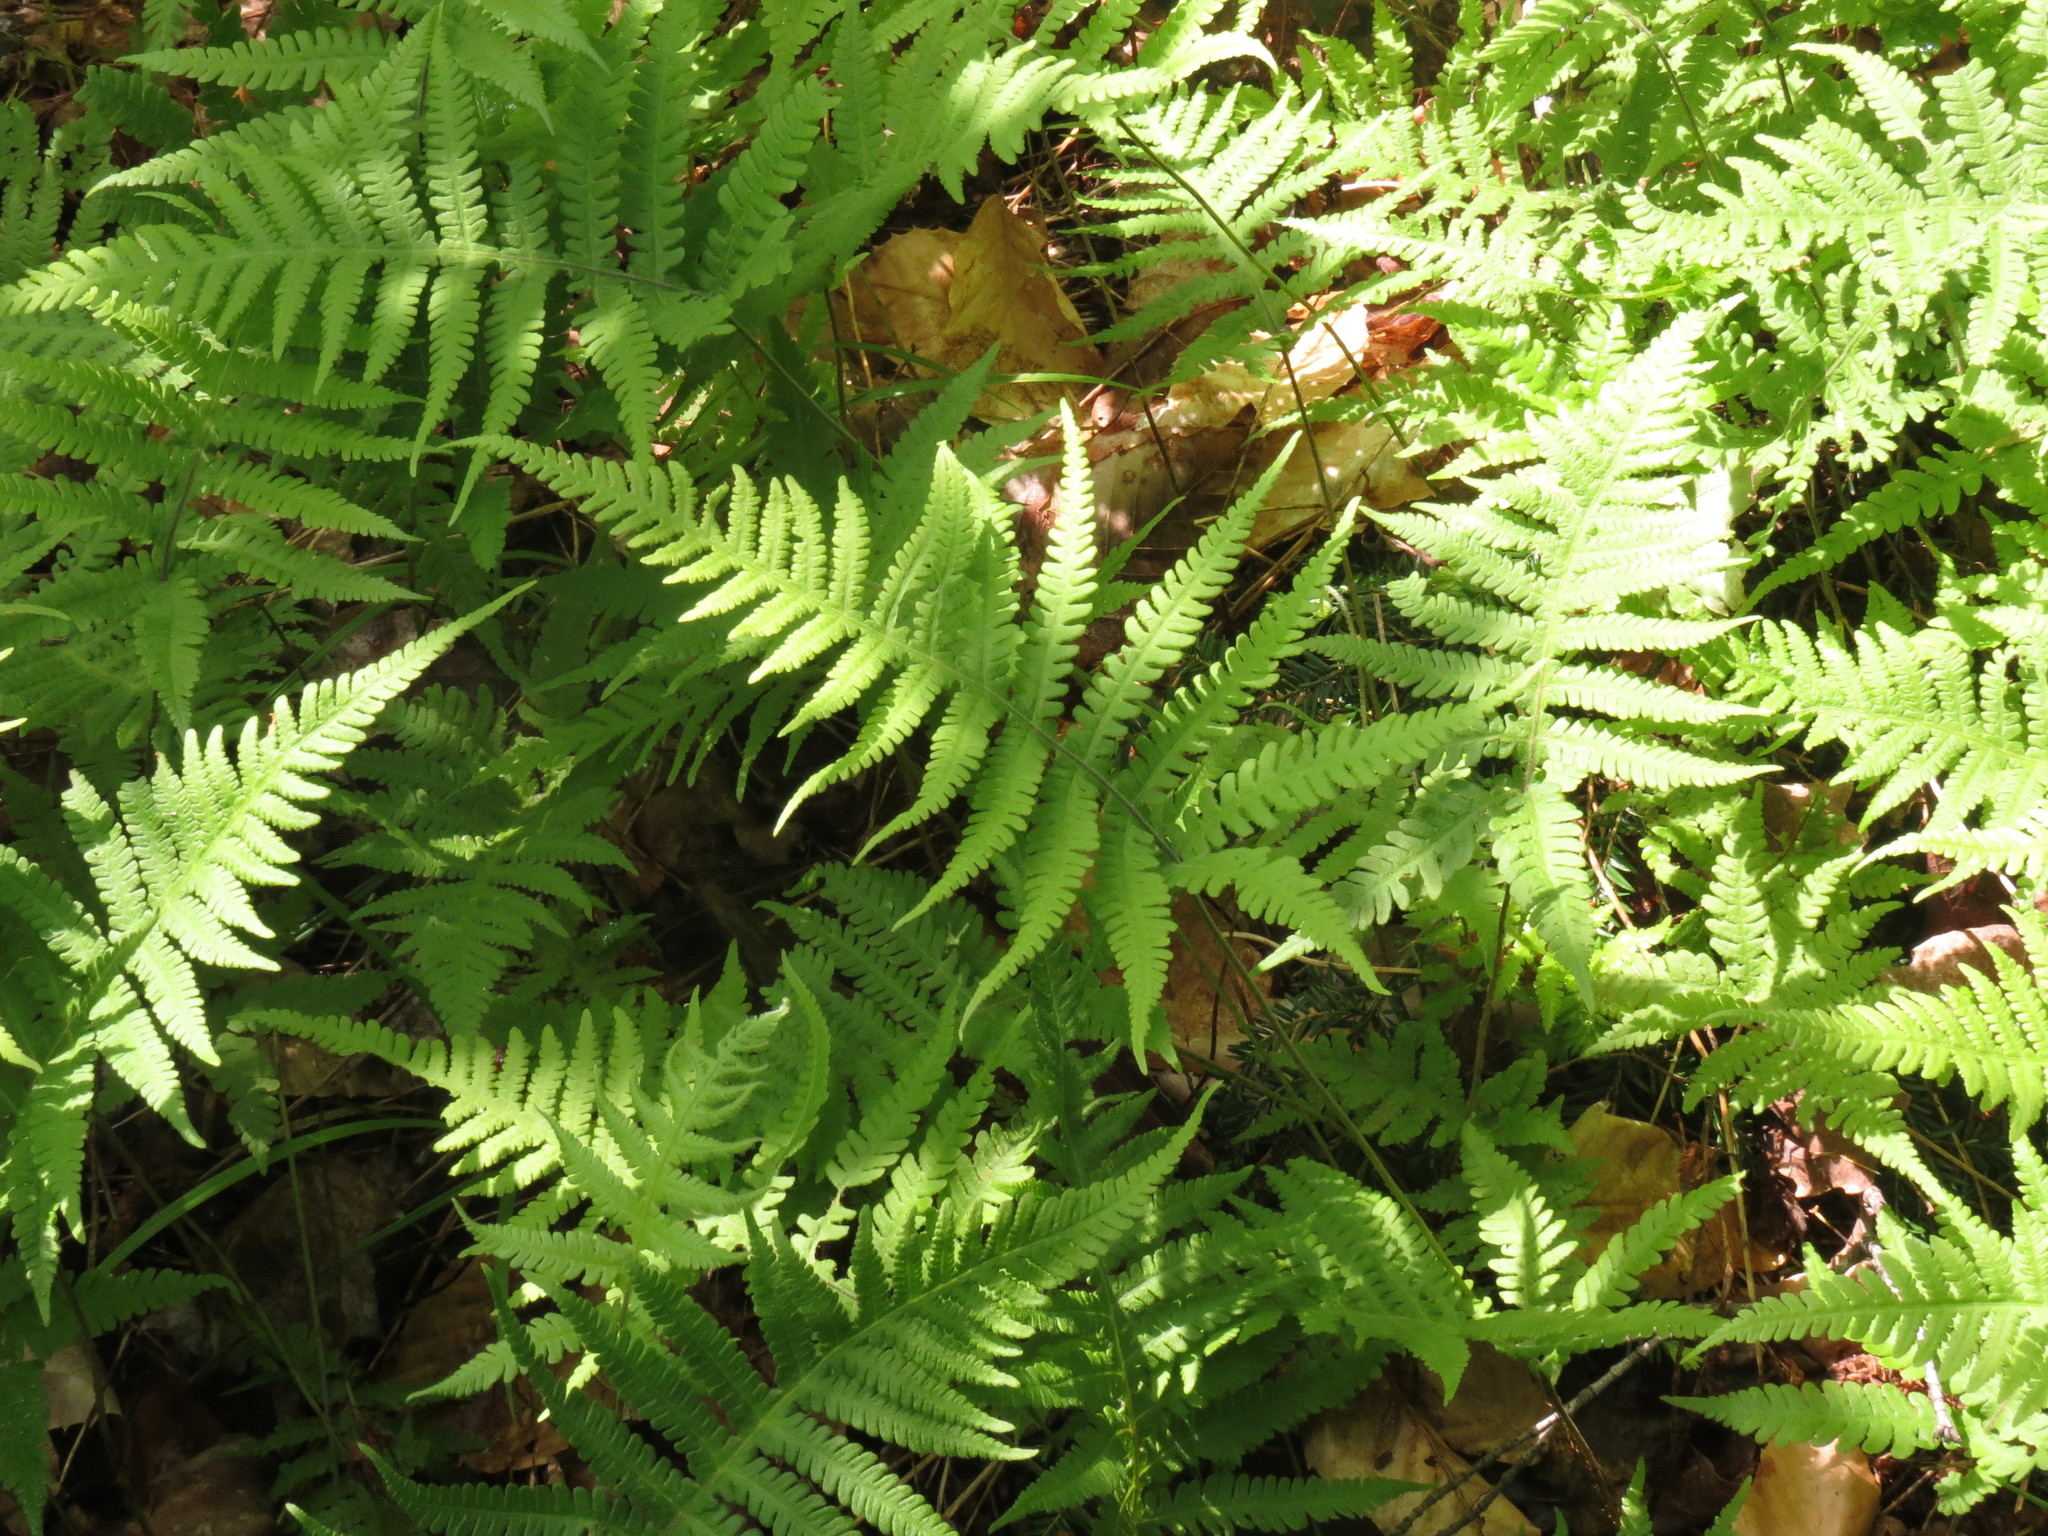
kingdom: Plantae
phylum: Tracheophyta
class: Polypodiopsida
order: Polypodiales
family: Thelypteridaceae
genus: Phegopteris
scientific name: Phegopteris connectilis
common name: Beech fern
